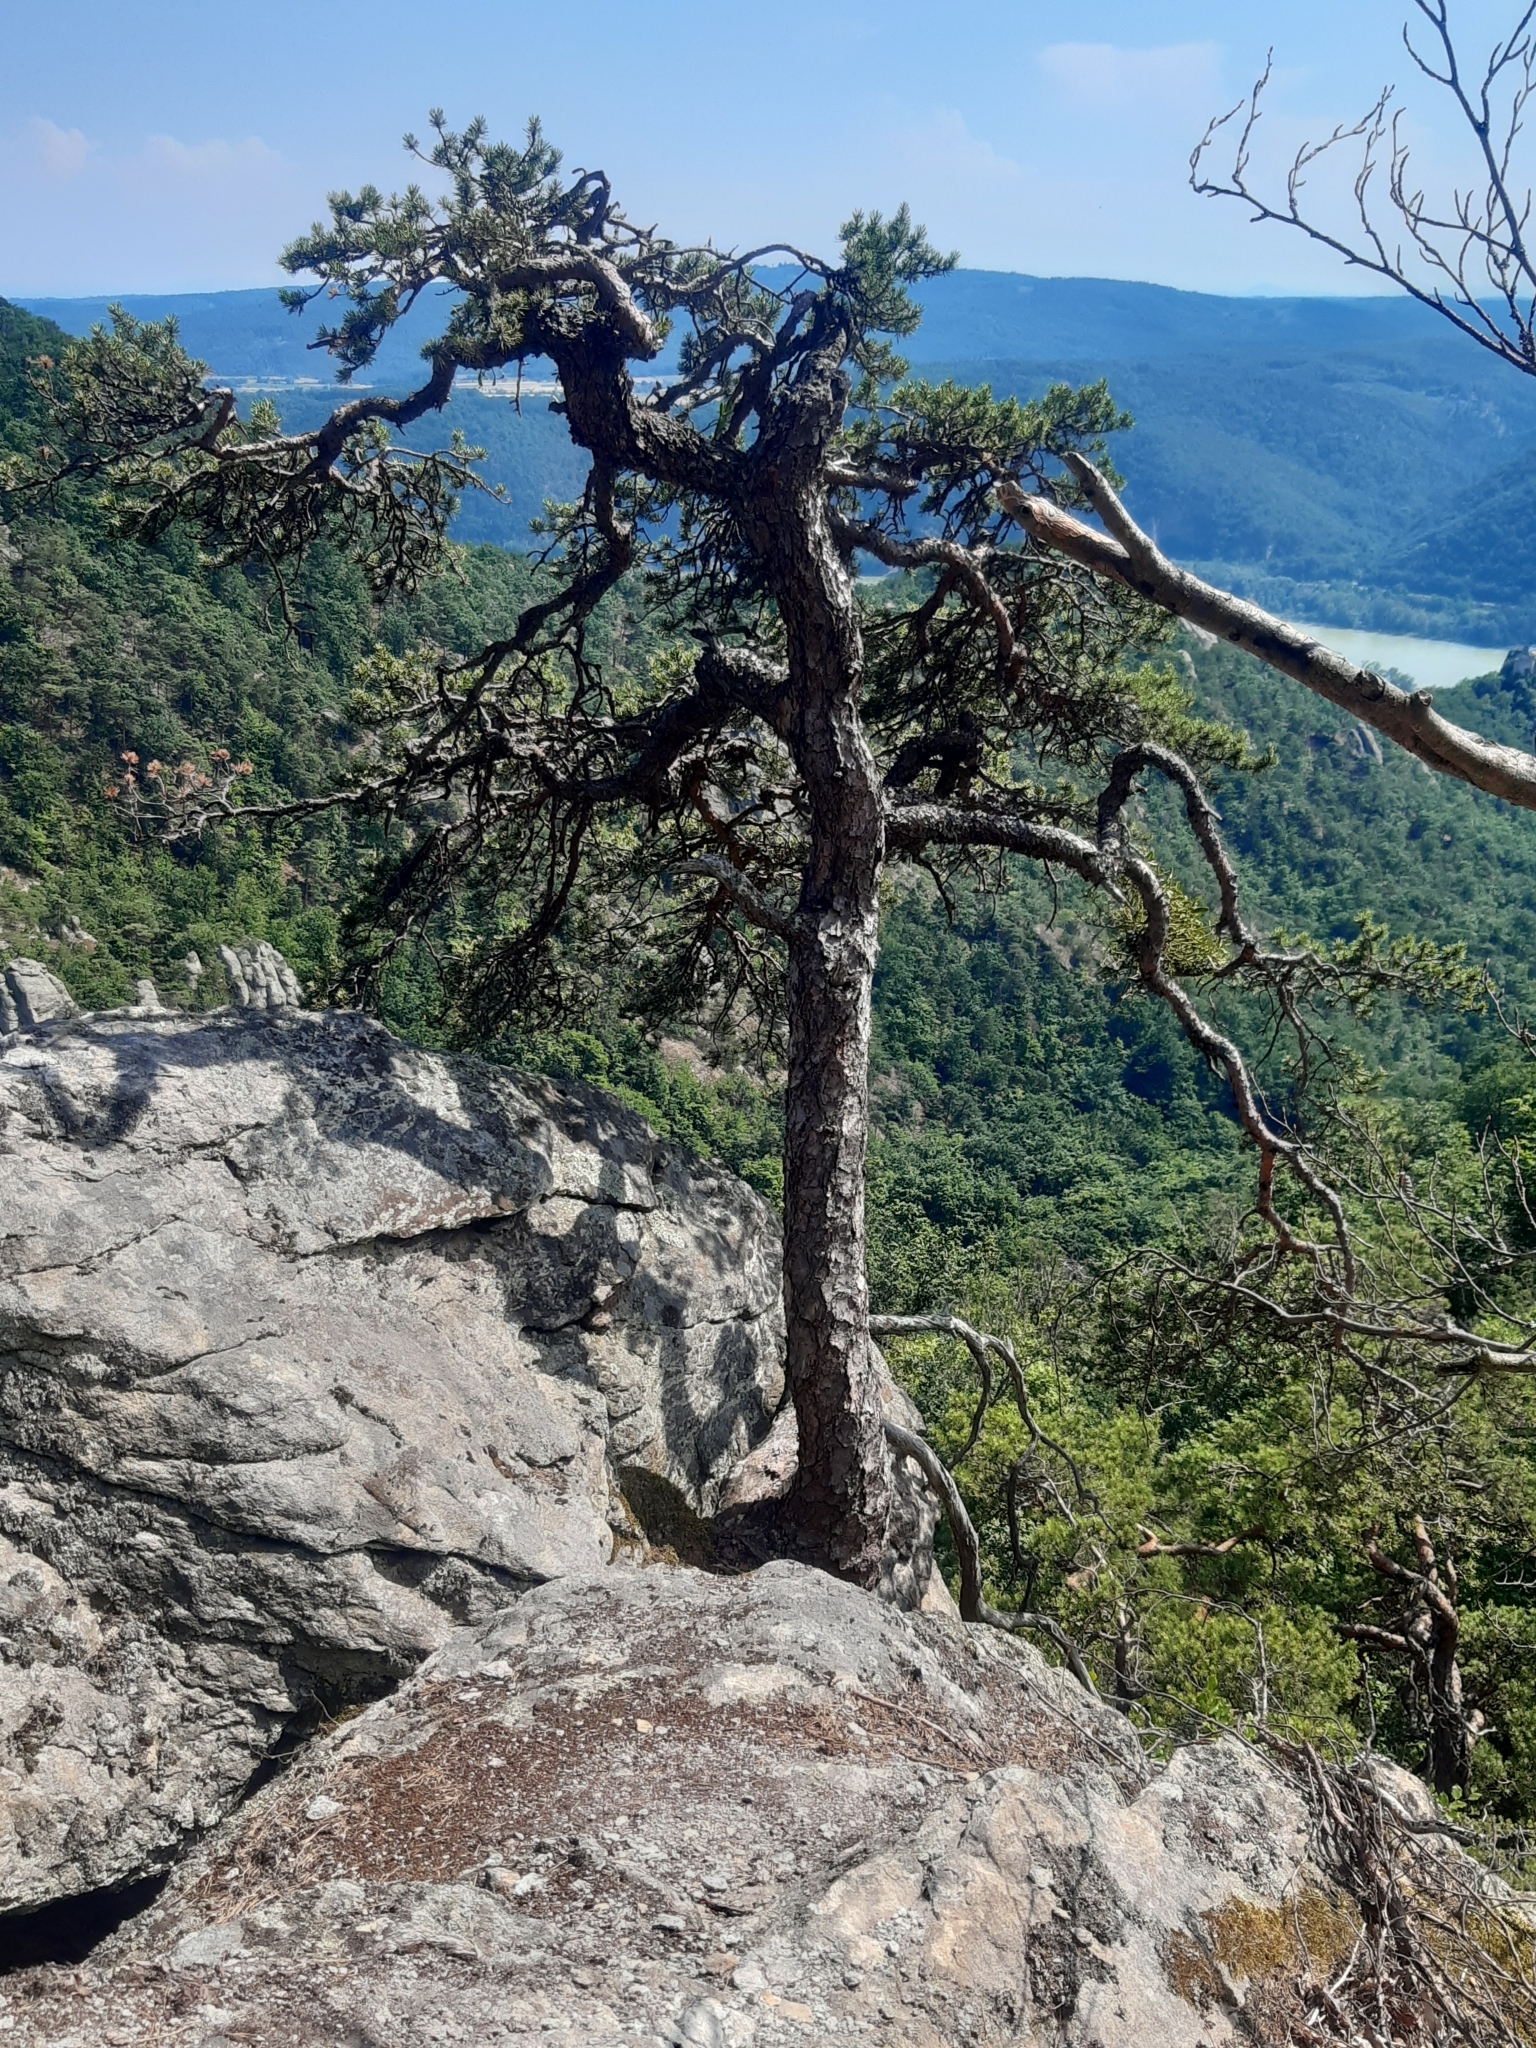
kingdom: Plantae
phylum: Tracheophyta
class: Pinopsida
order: Pinales
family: Pinaceae
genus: Pinus
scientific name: Pinus sylvestris
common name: Scots pine
